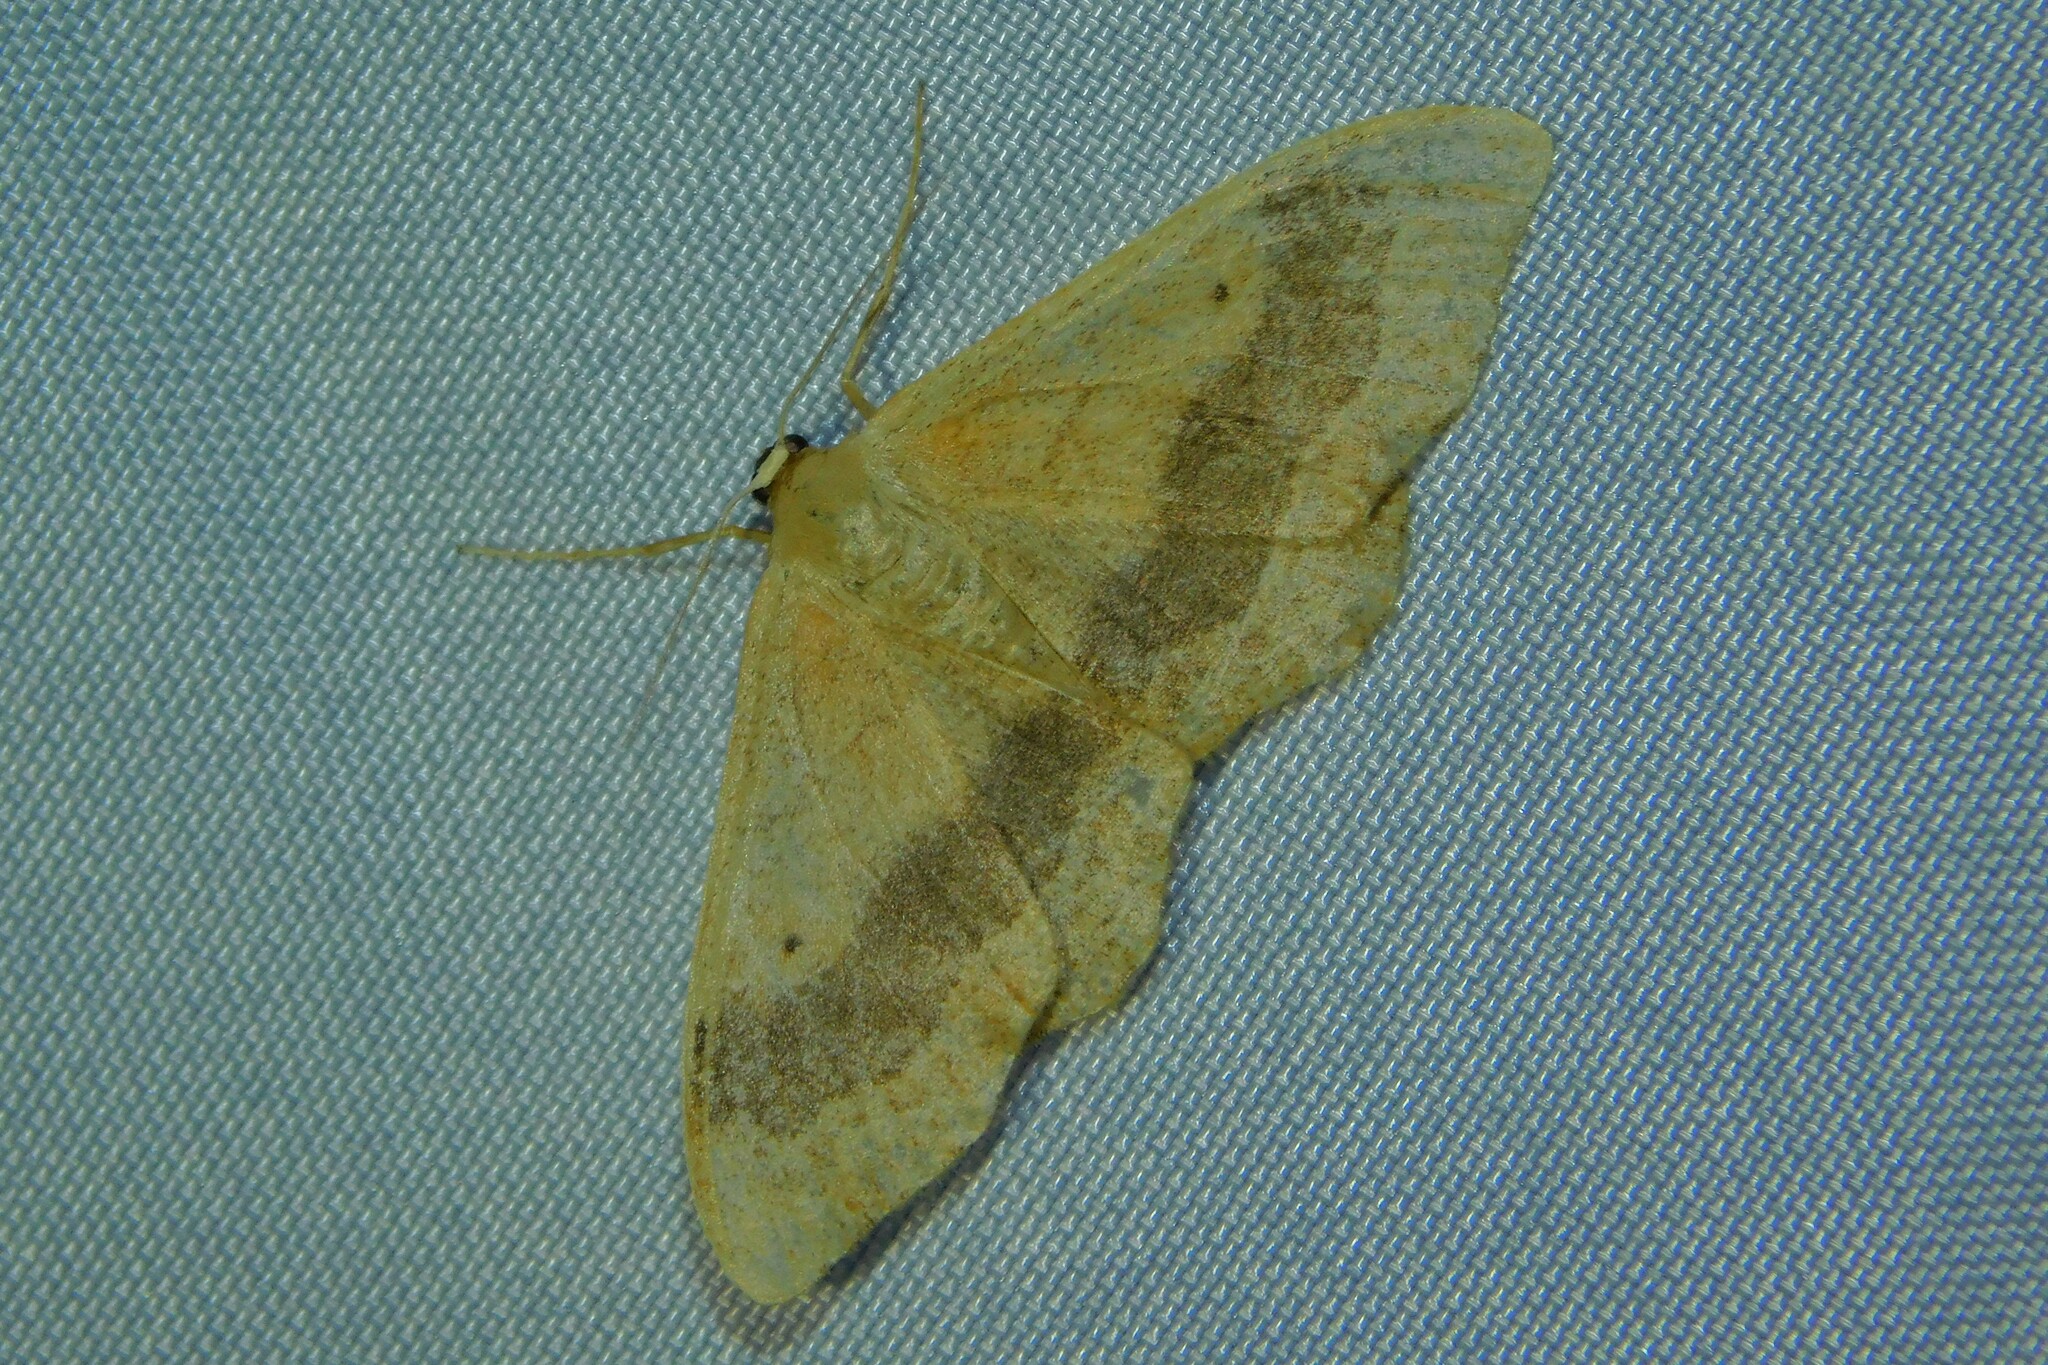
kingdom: Animalia
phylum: Arthropoda
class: Insecta
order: Lepidoptera
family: Geometridae
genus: Idaea
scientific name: Idaea aversata
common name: Riband wave
